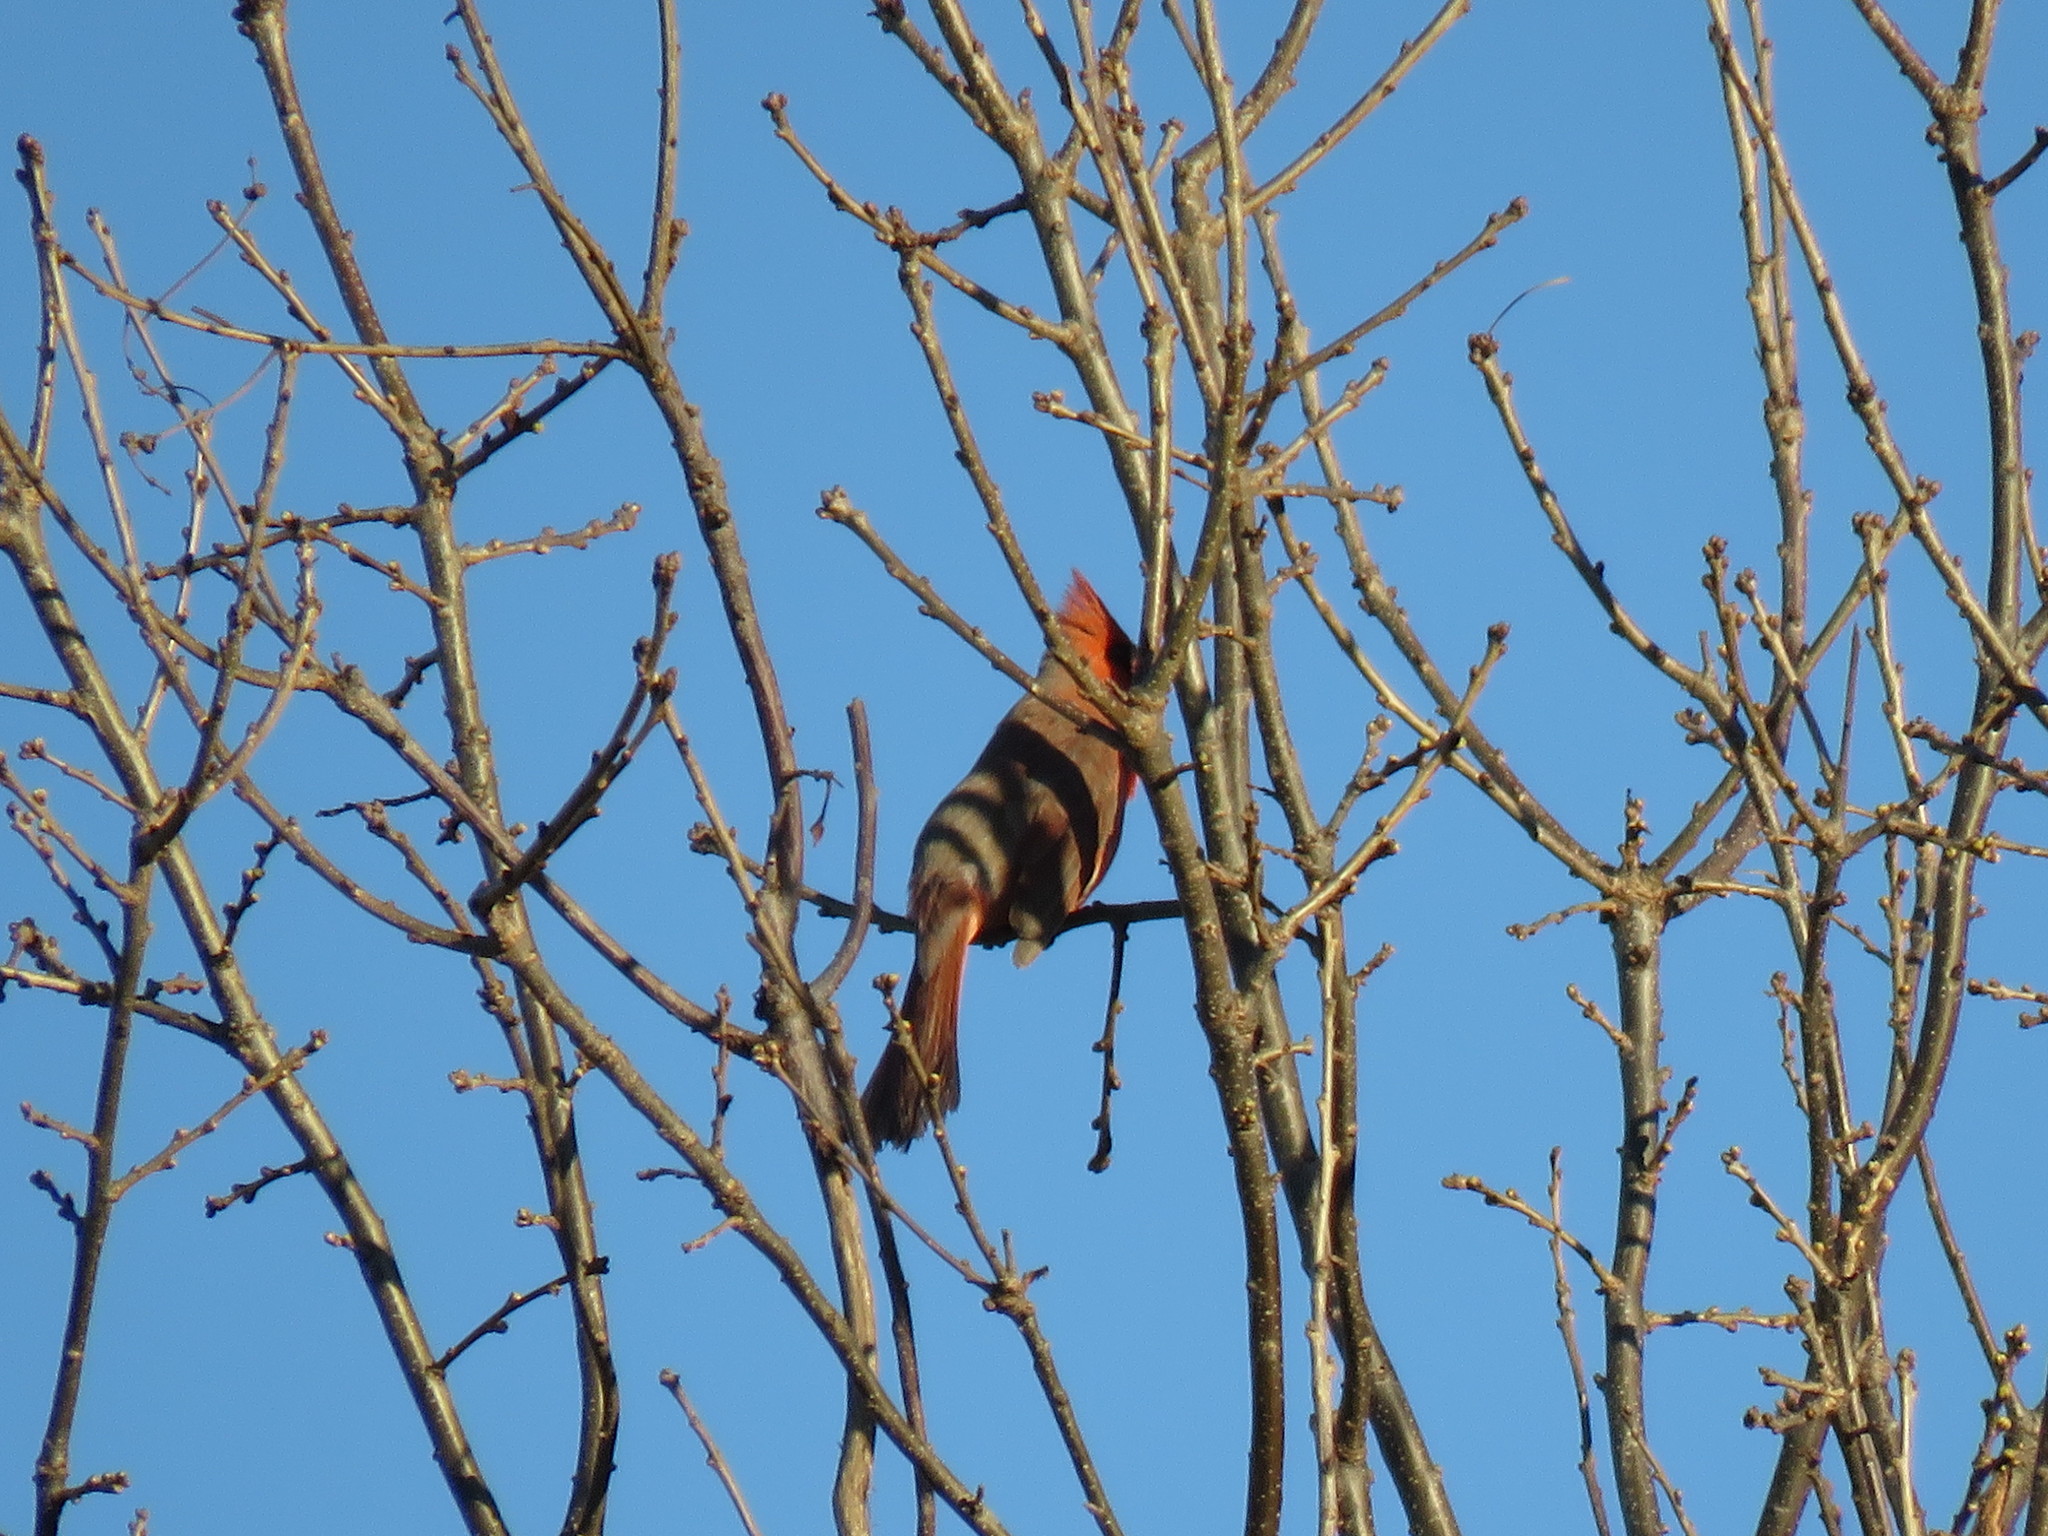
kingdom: Animalia
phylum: Chordata
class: Aves
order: Passeriformes
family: Cardinalidae
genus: Cardinalis
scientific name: Cardinalis cardinalis
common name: Northern cardinal
